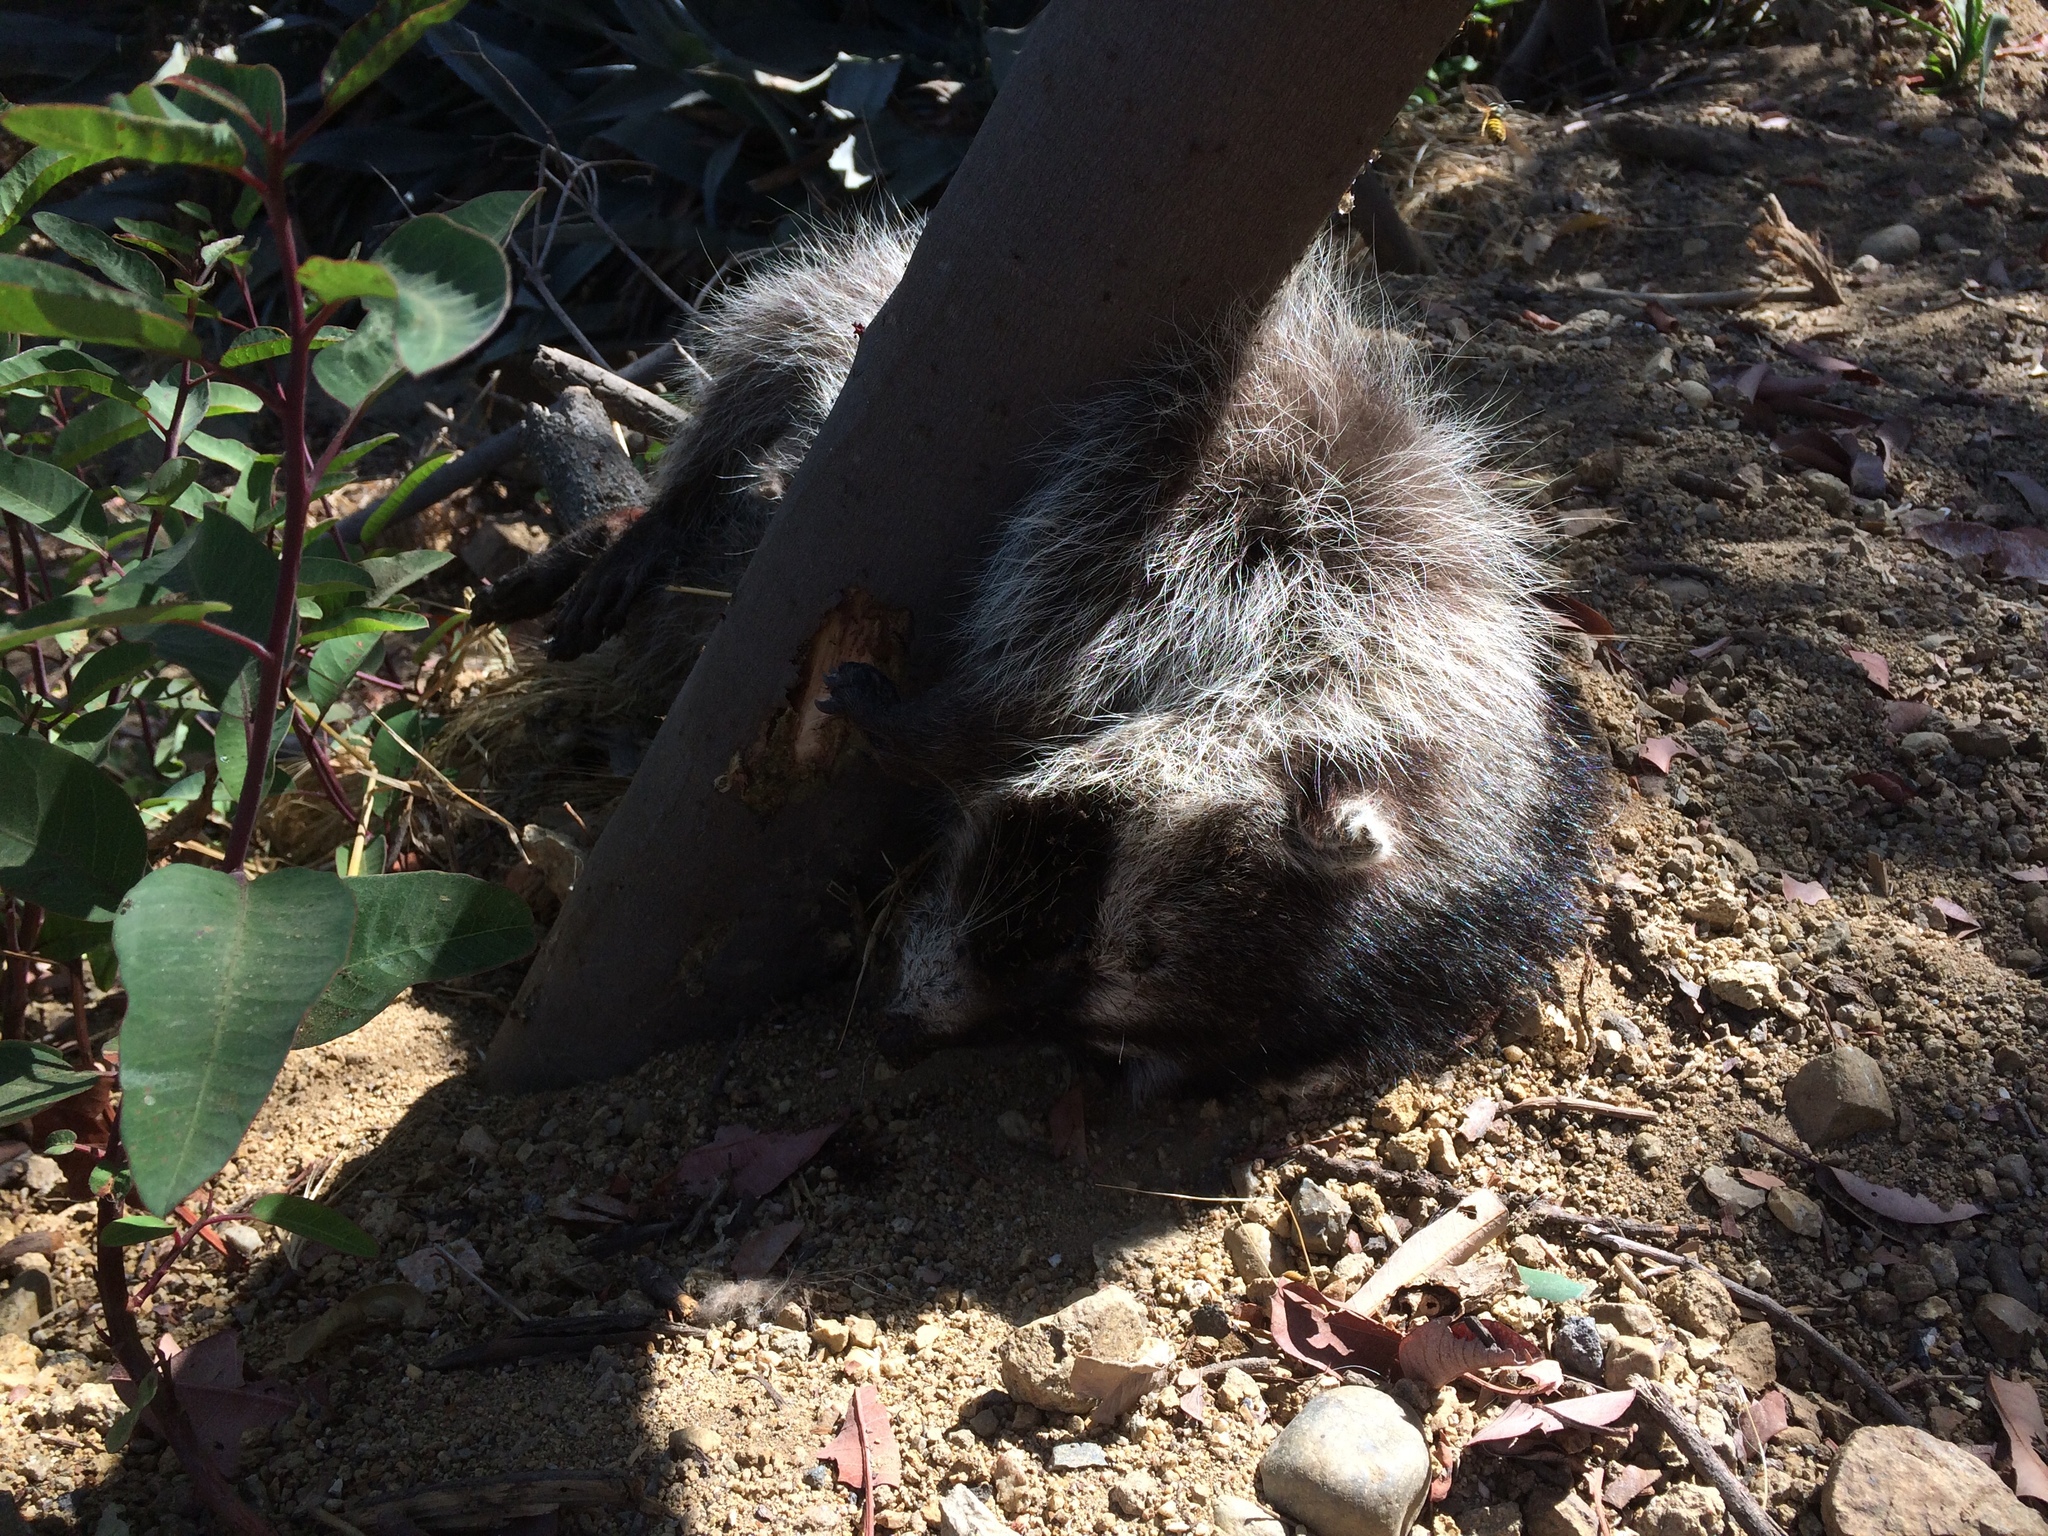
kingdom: Animalia
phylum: Chordata
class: Mammalia
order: Carnivora
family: Procyonidae
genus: Procyon
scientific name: Procyon lotor
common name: Raccoon
